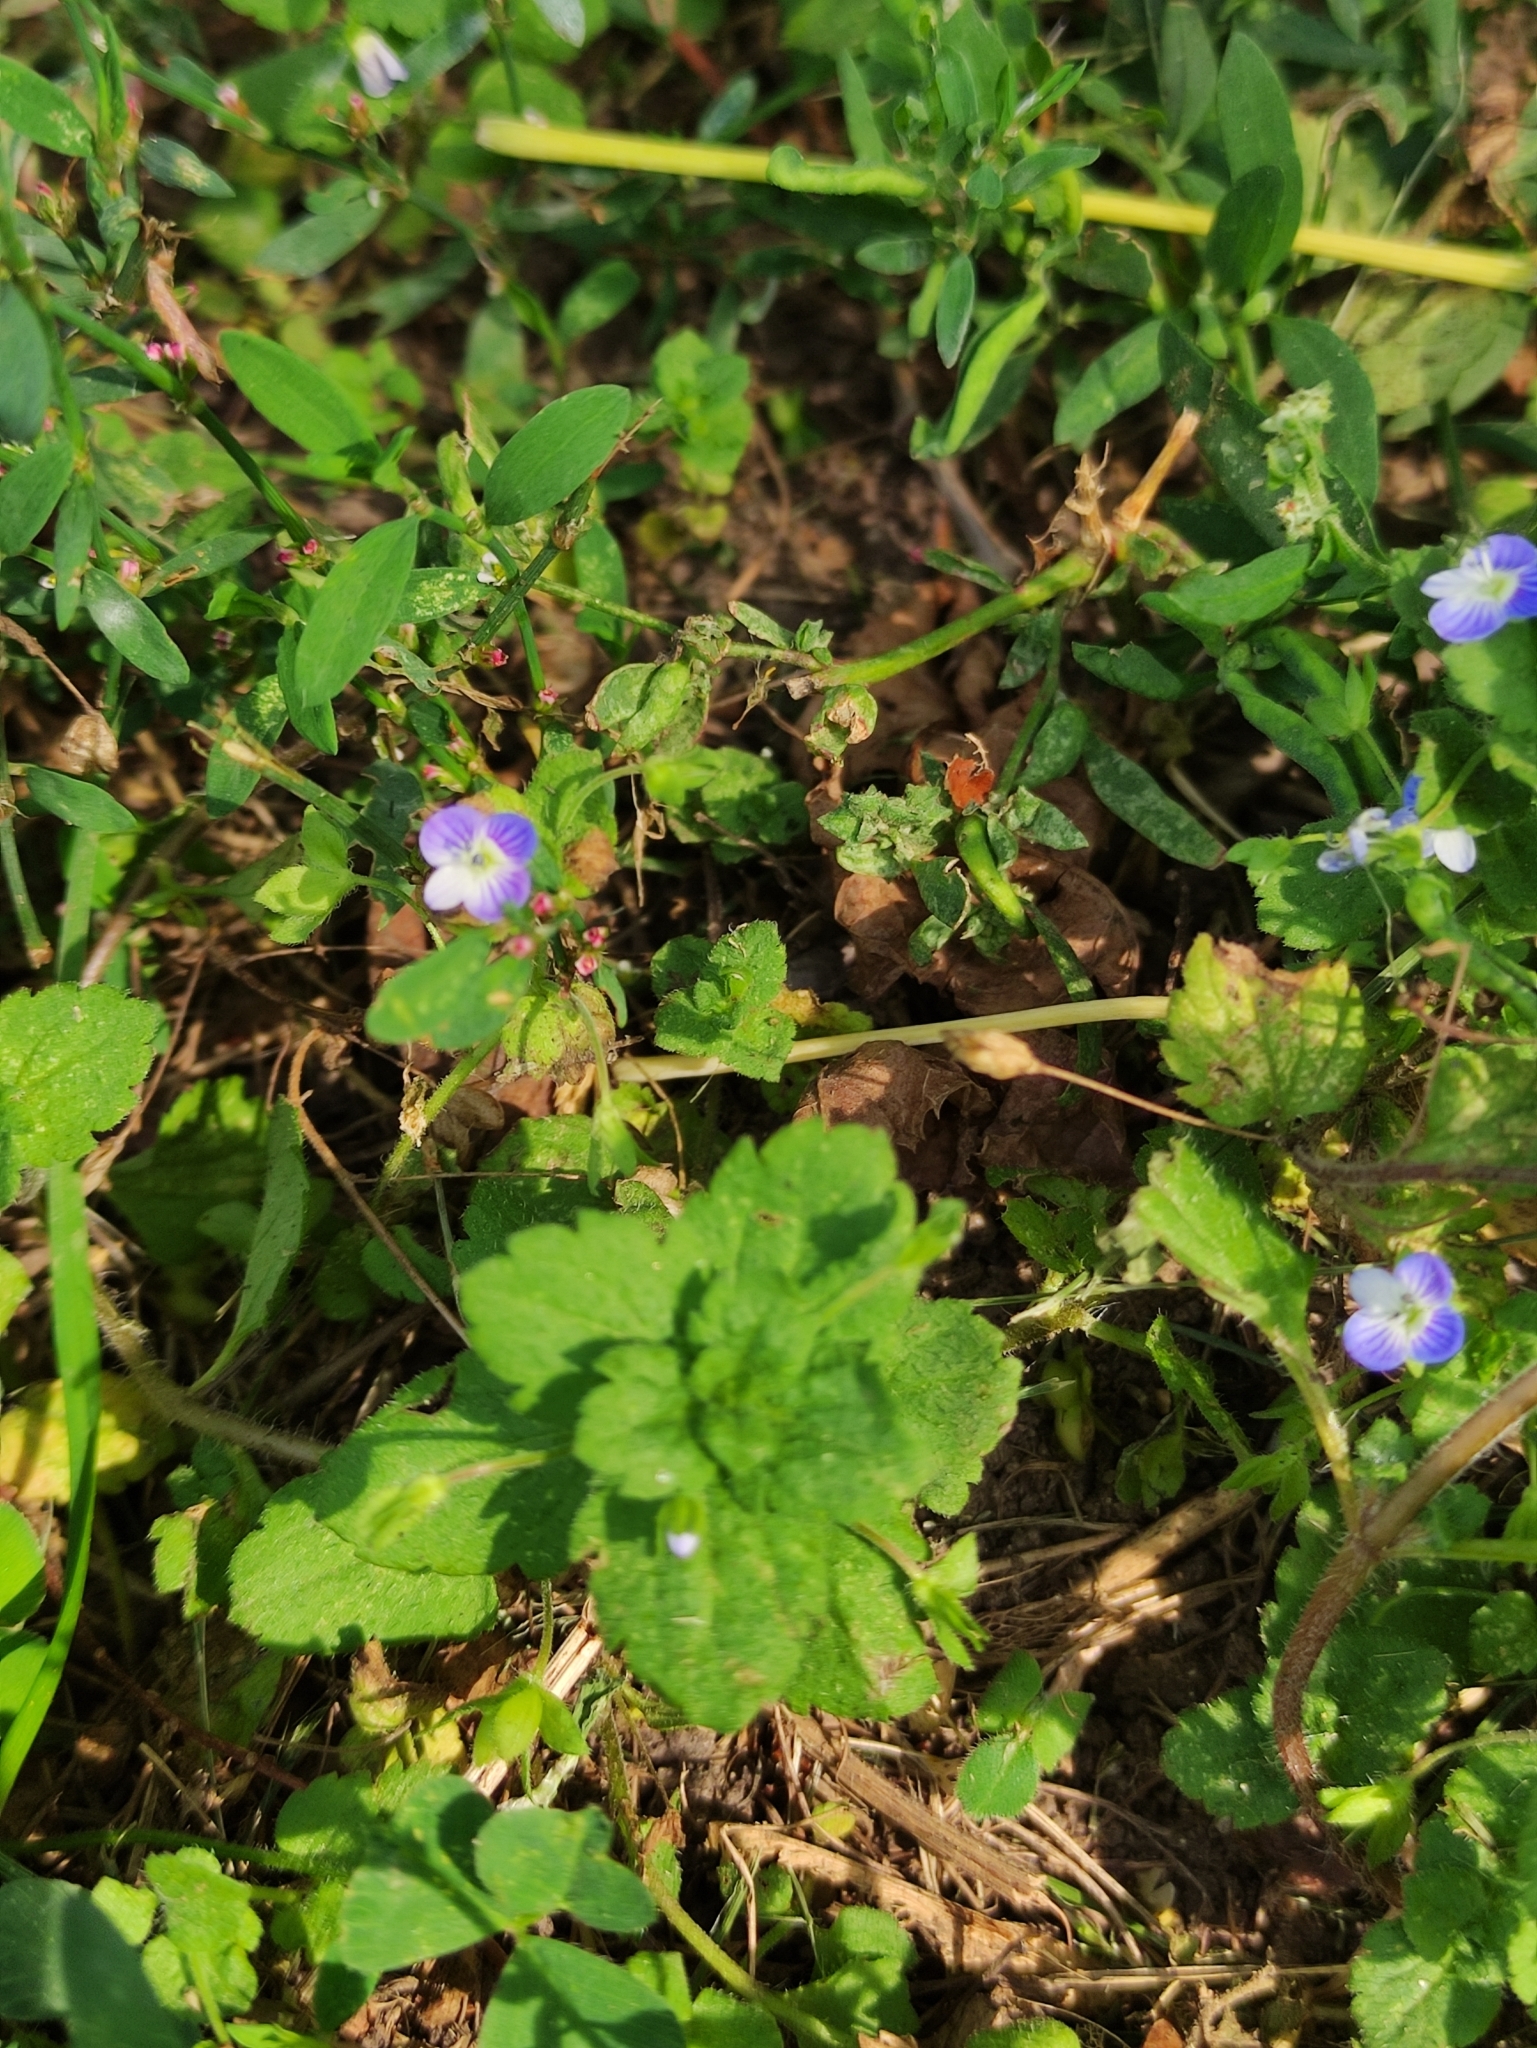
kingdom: Plantae
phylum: Tracheophyta
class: Magnoliopsida
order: Lamiales
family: Plantaginaceae
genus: Veronica
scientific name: Veronica persica
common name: Common field-speedwell
